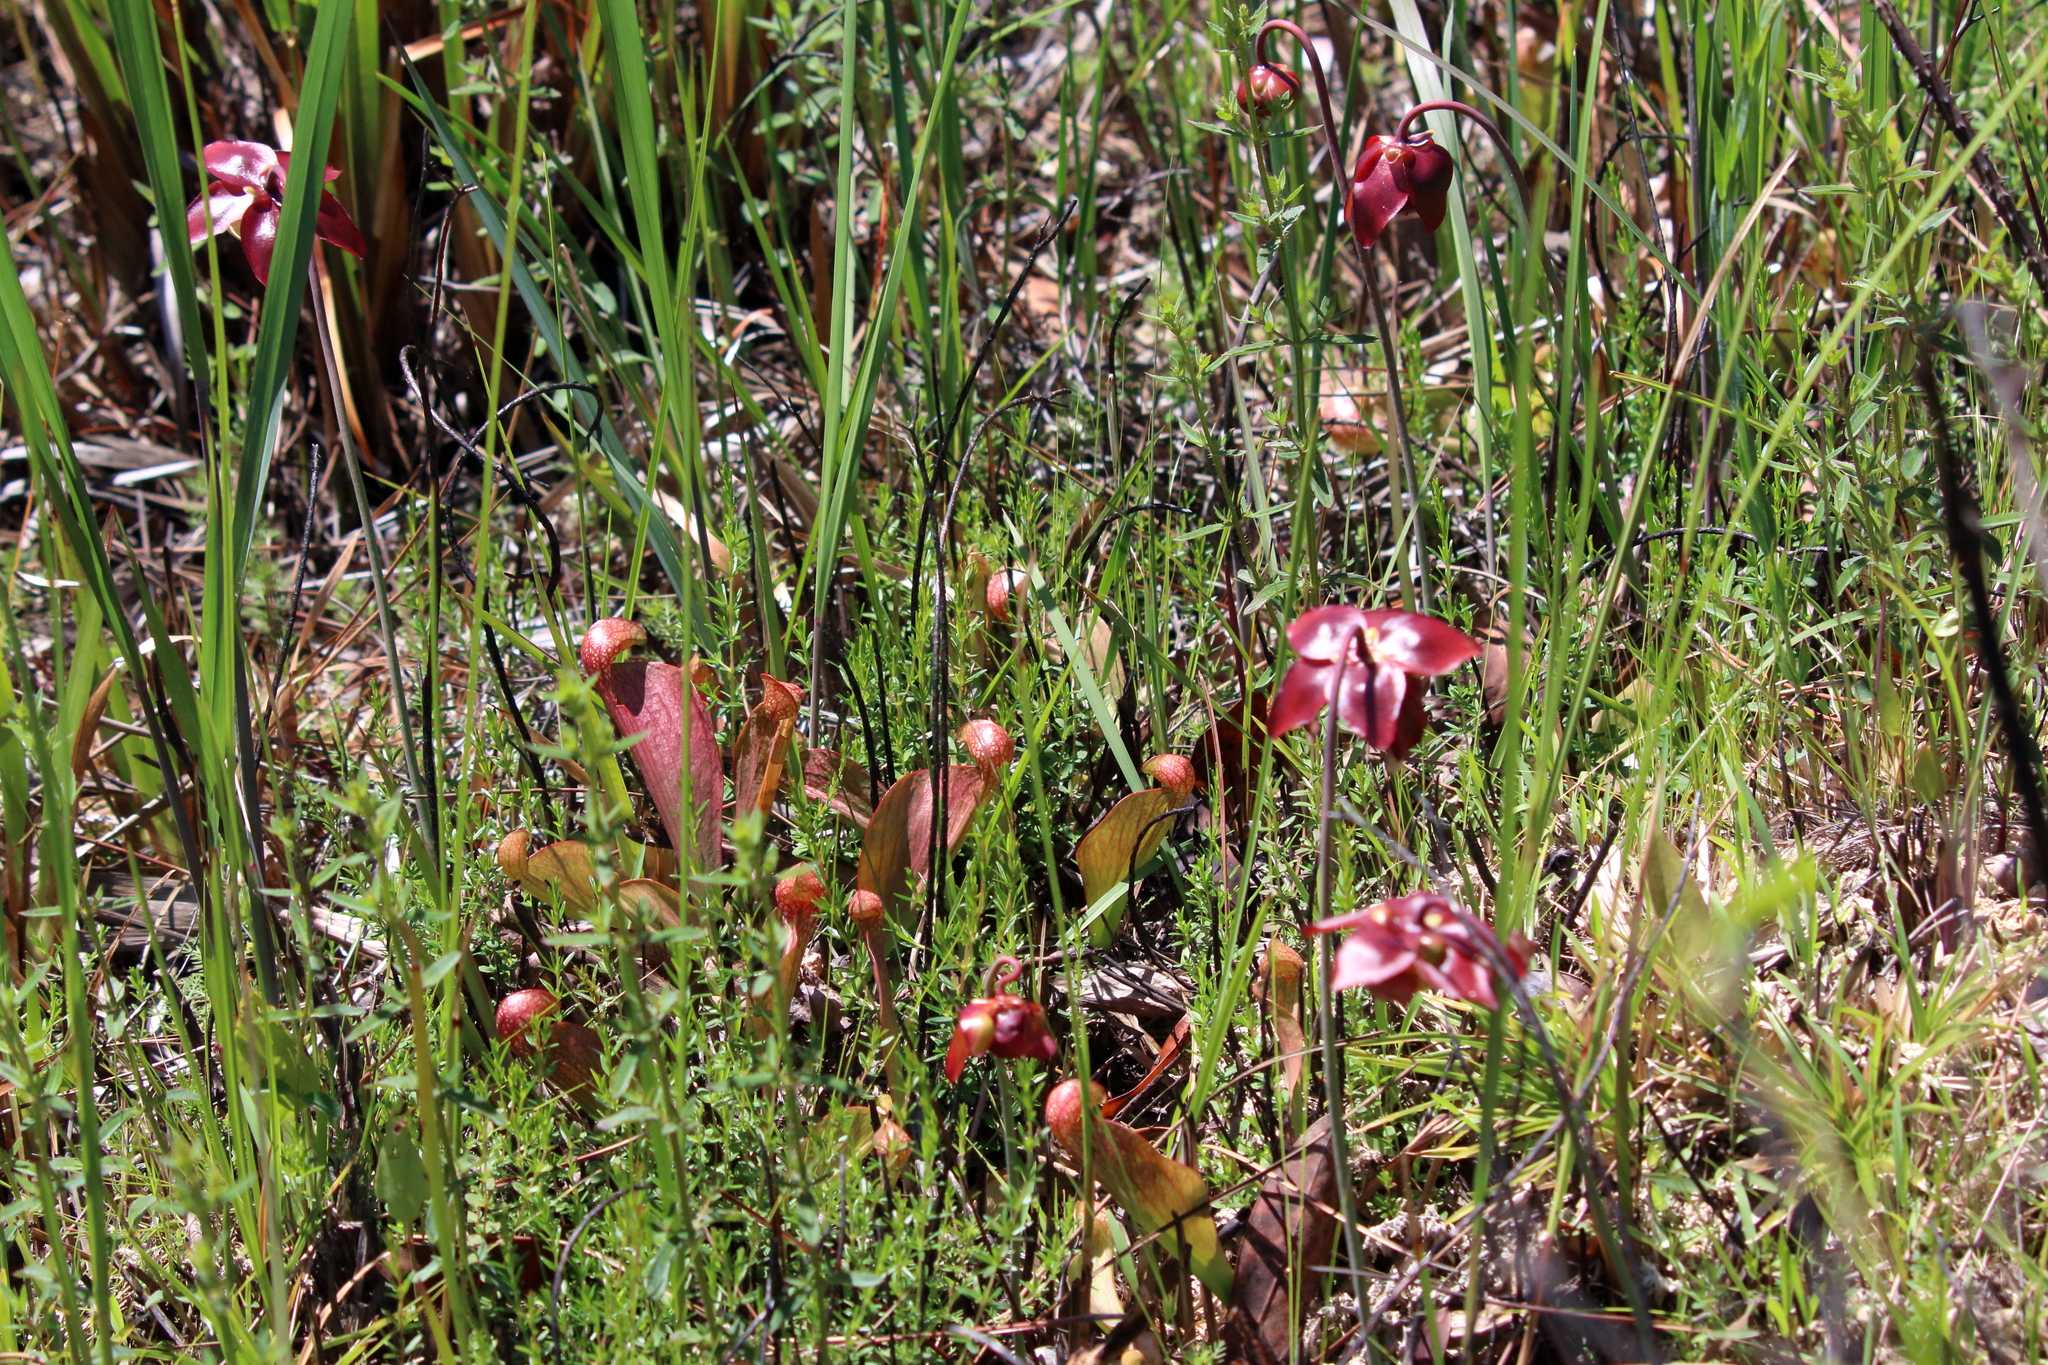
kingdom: Plantae
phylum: Tracheophyta
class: Magnoliopsida
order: Ericales
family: Sarraceniaceae
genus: Sarracenia
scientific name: Sarracenia psittacina
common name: Parrot pitcherplant
